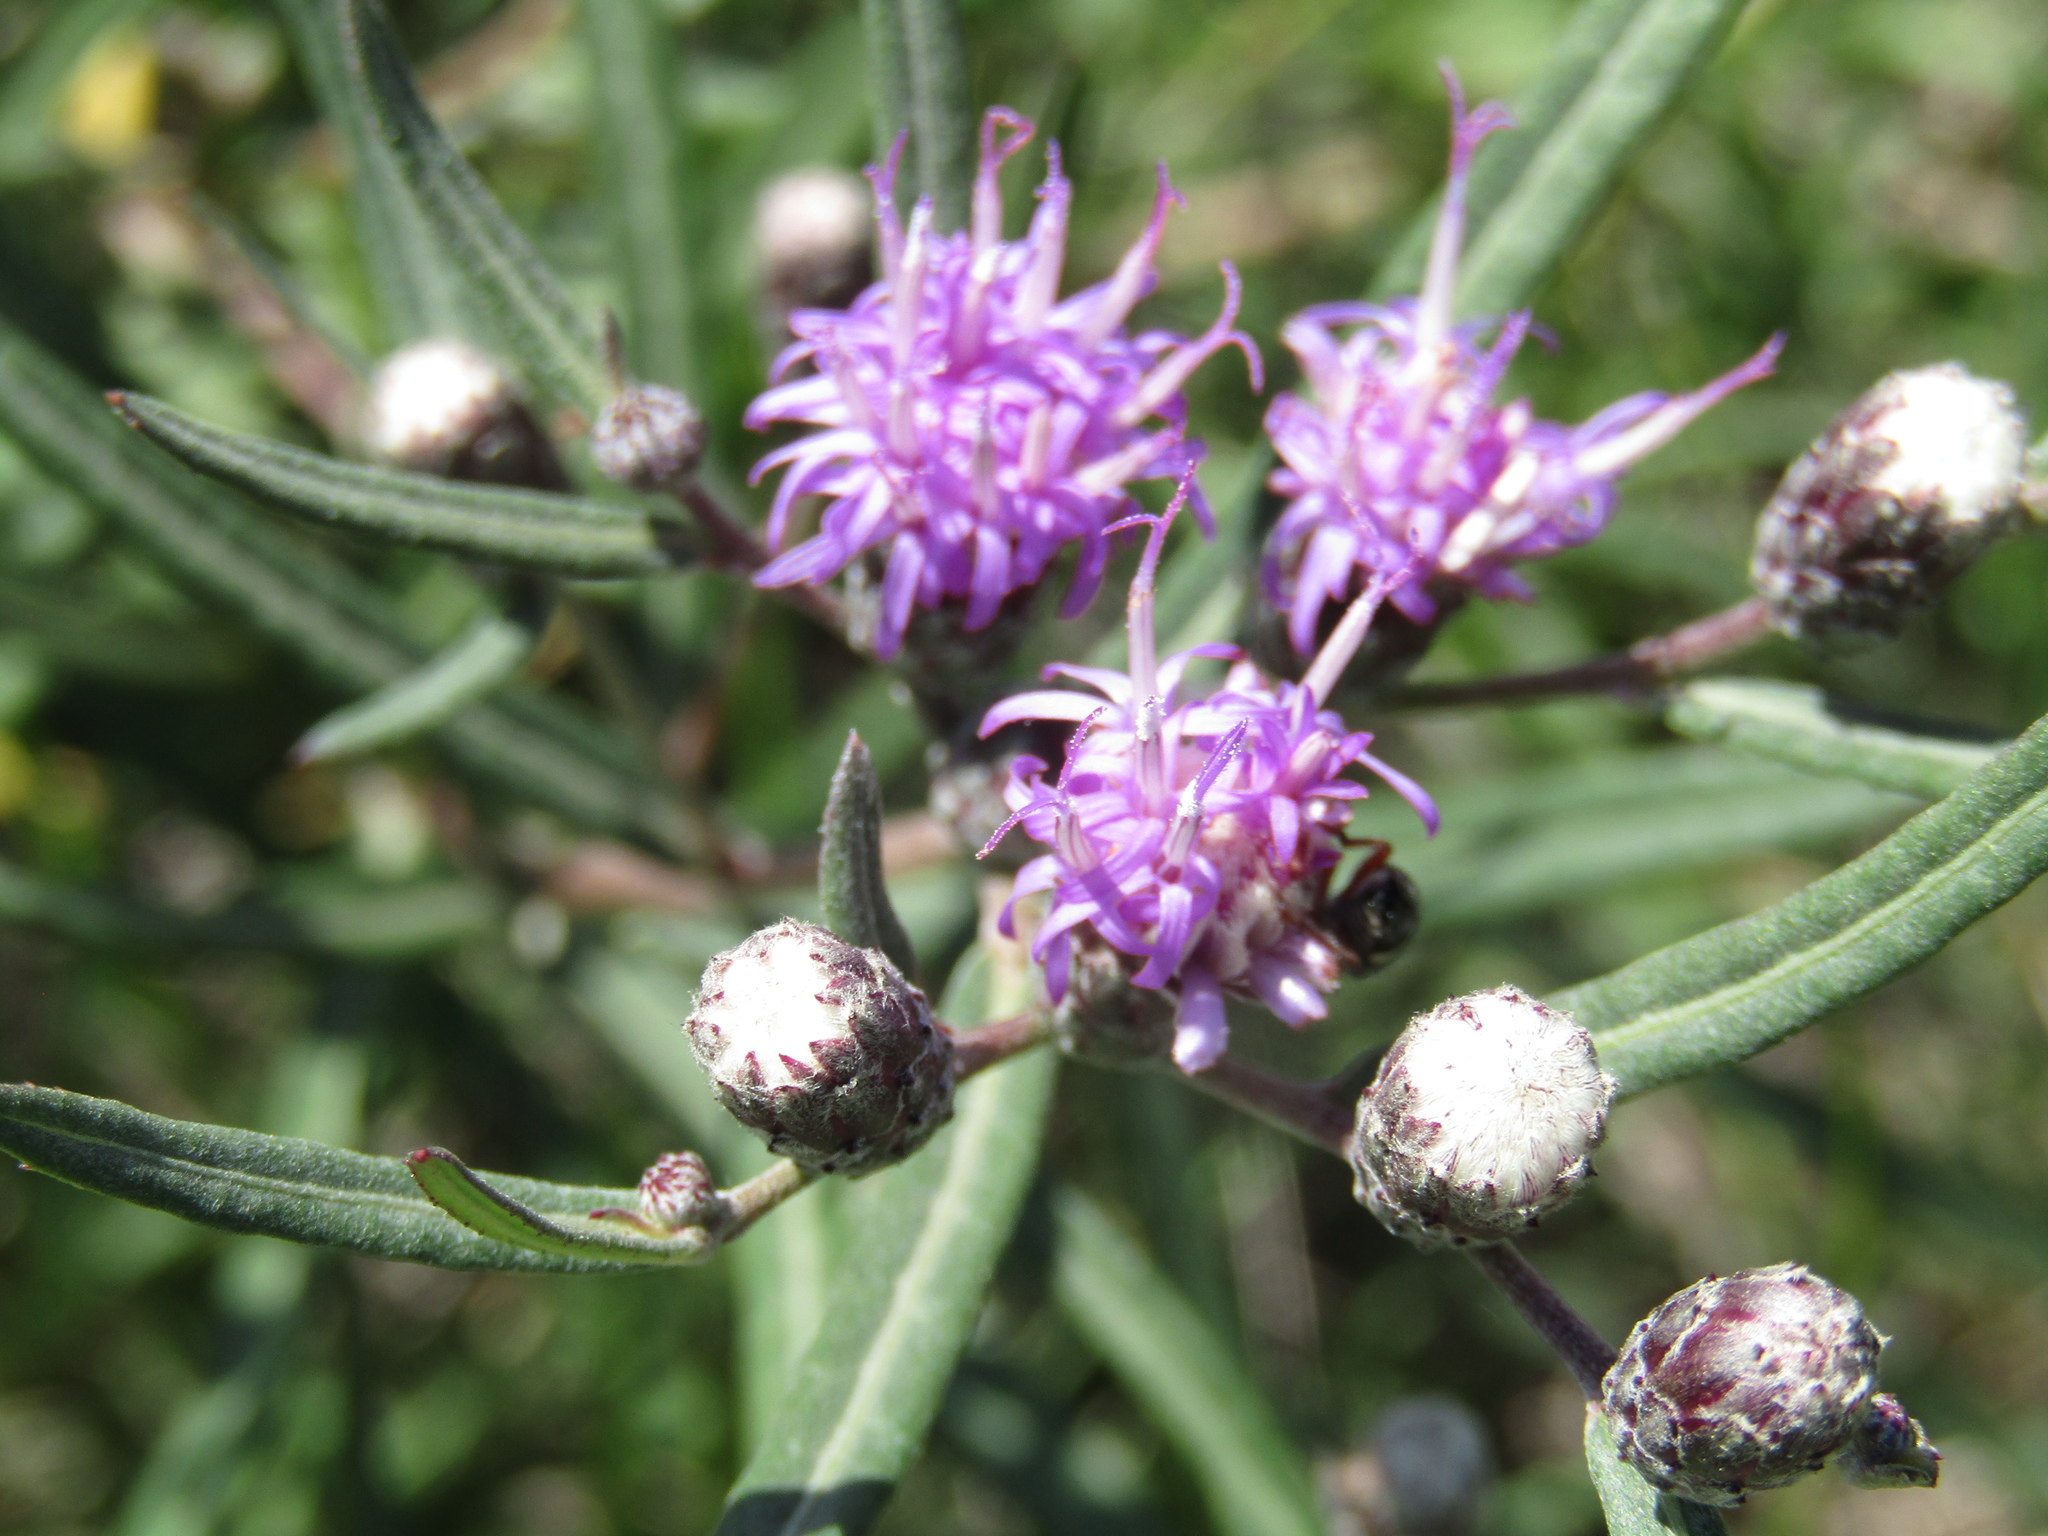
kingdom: Plantae
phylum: Tracheophyta
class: Magnoliopsida
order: Asterales
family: Asteraceae
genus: Lessingianthus
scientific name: Lessingianthus rubricaulis
